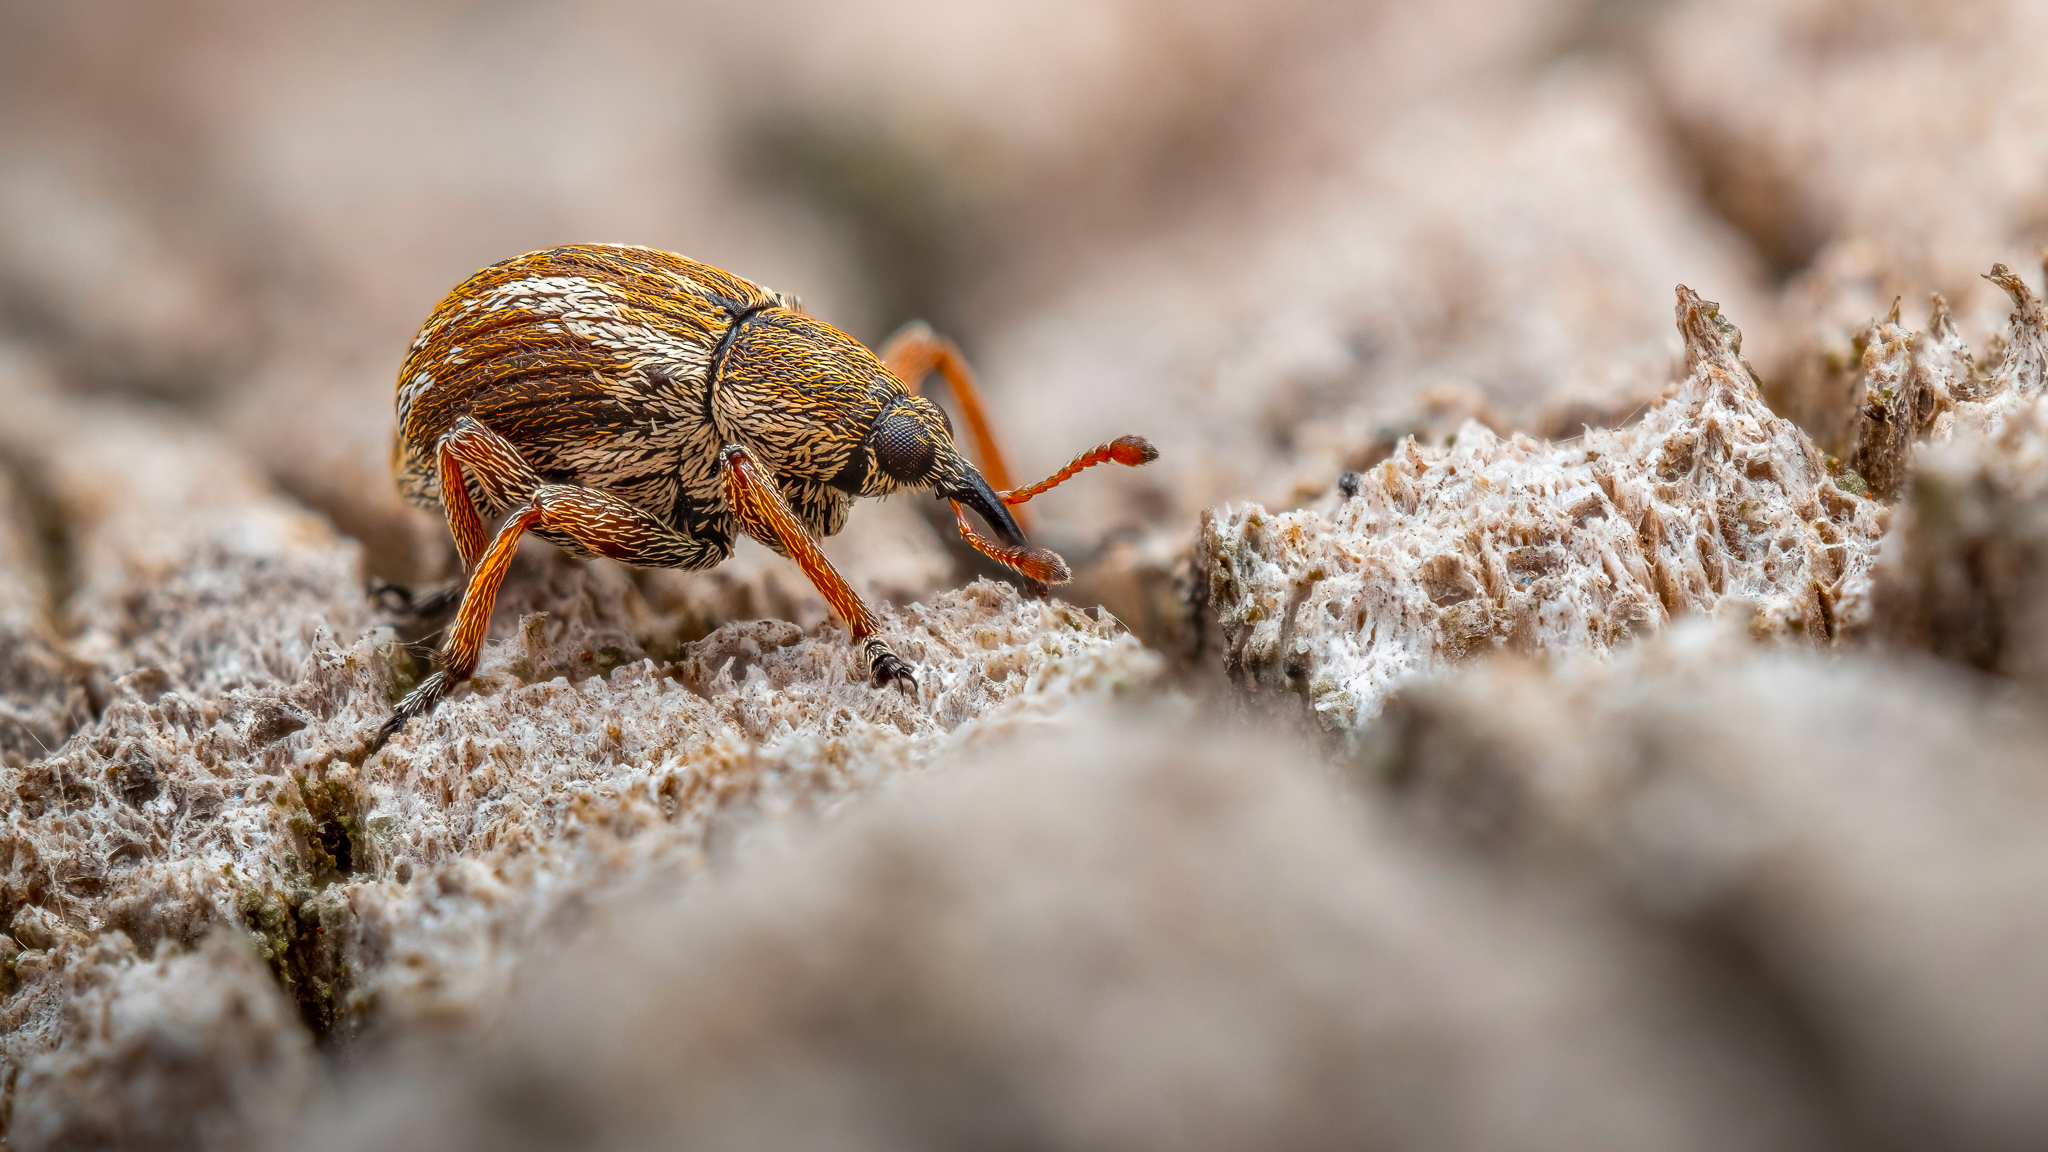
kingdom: Animalia
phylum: Arthropoda
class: Insecta
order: Coleoptera
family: Brentidae
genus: Exapion
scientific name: Exapion fuscirostre
